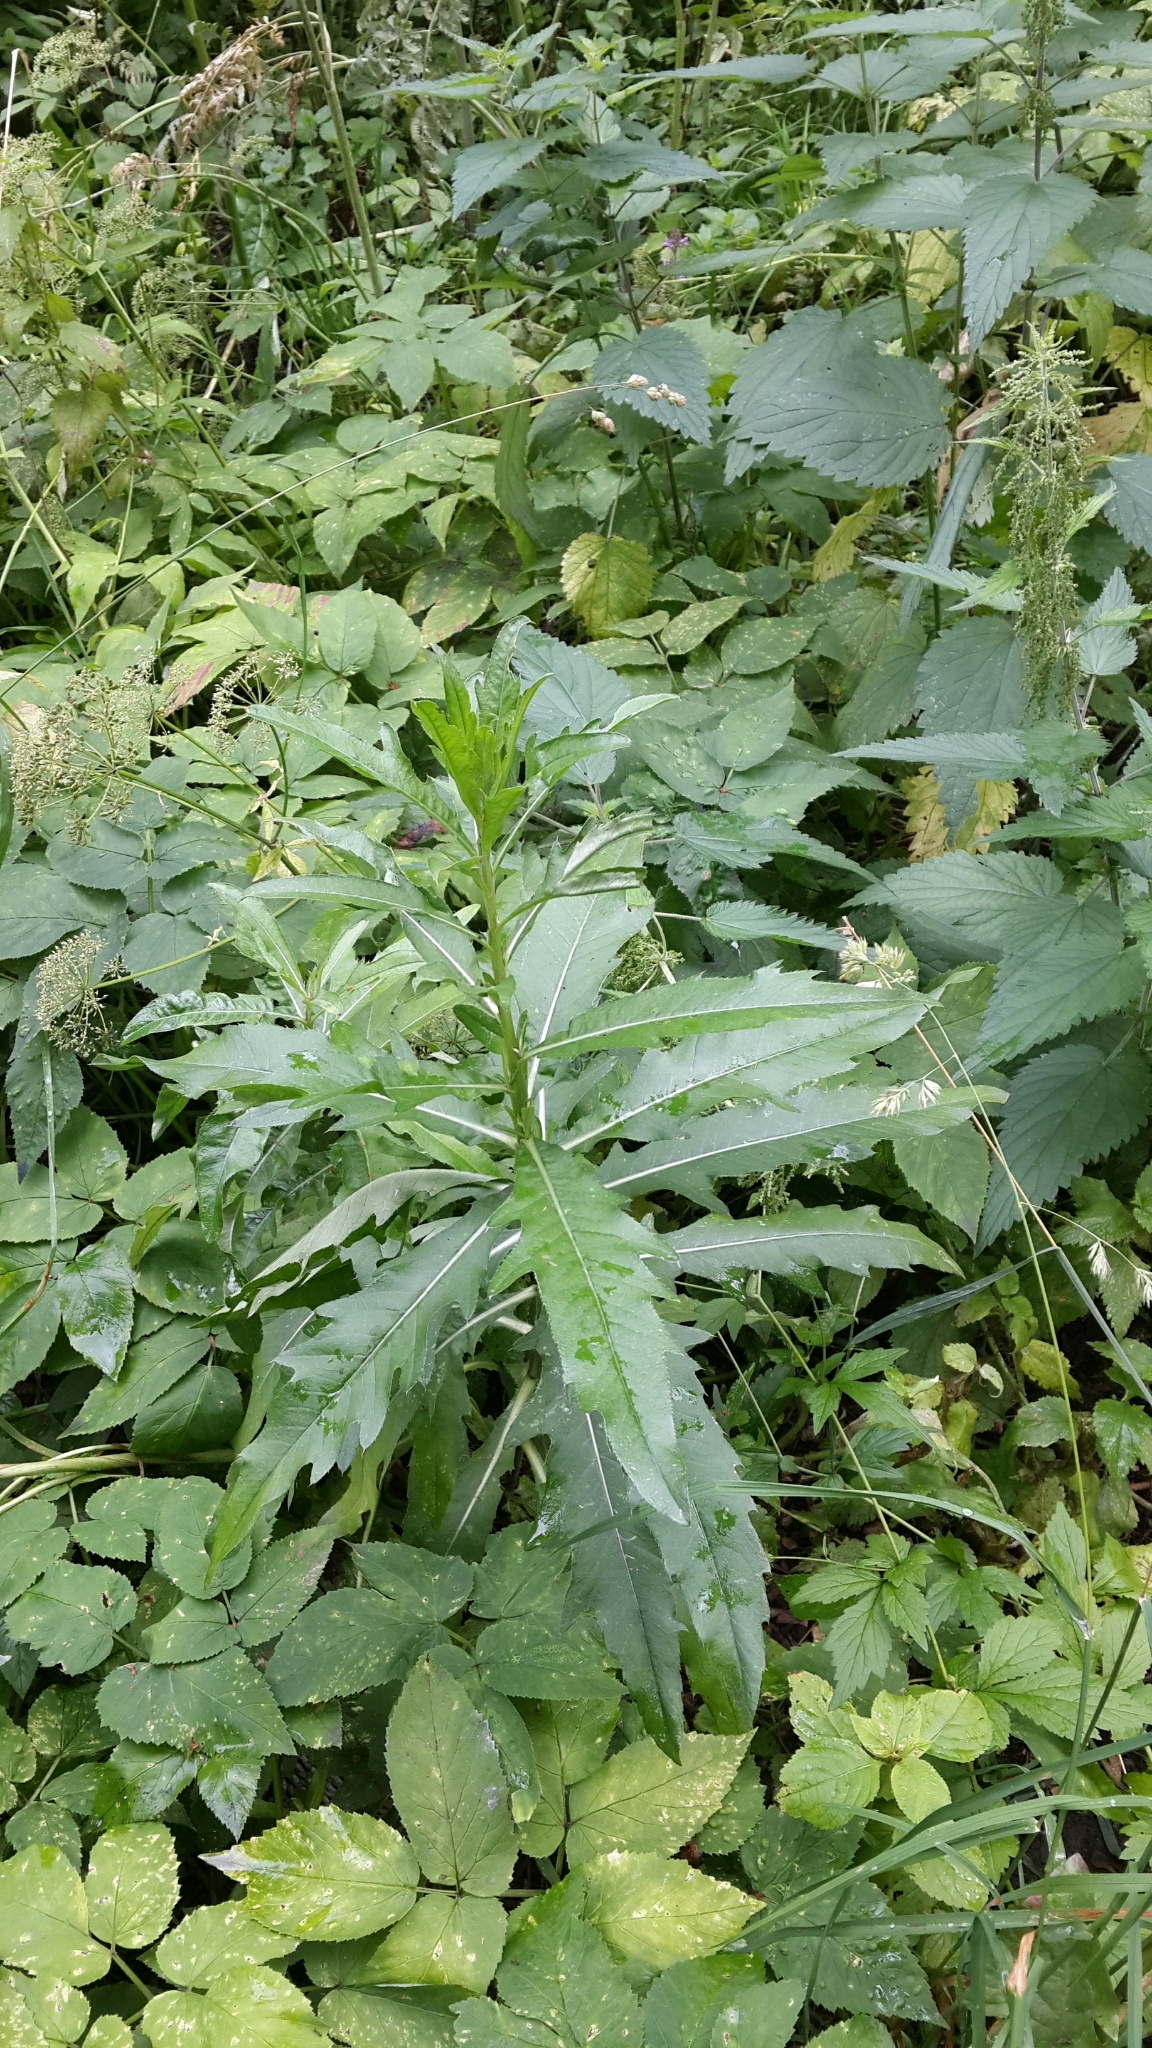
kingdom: Plantae
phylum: Tracheophyta
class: Magnoliopsida
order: Asterales
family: Asteraceae
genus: Cirsium
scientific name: Cirsium arvense
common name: Creeping thistle
